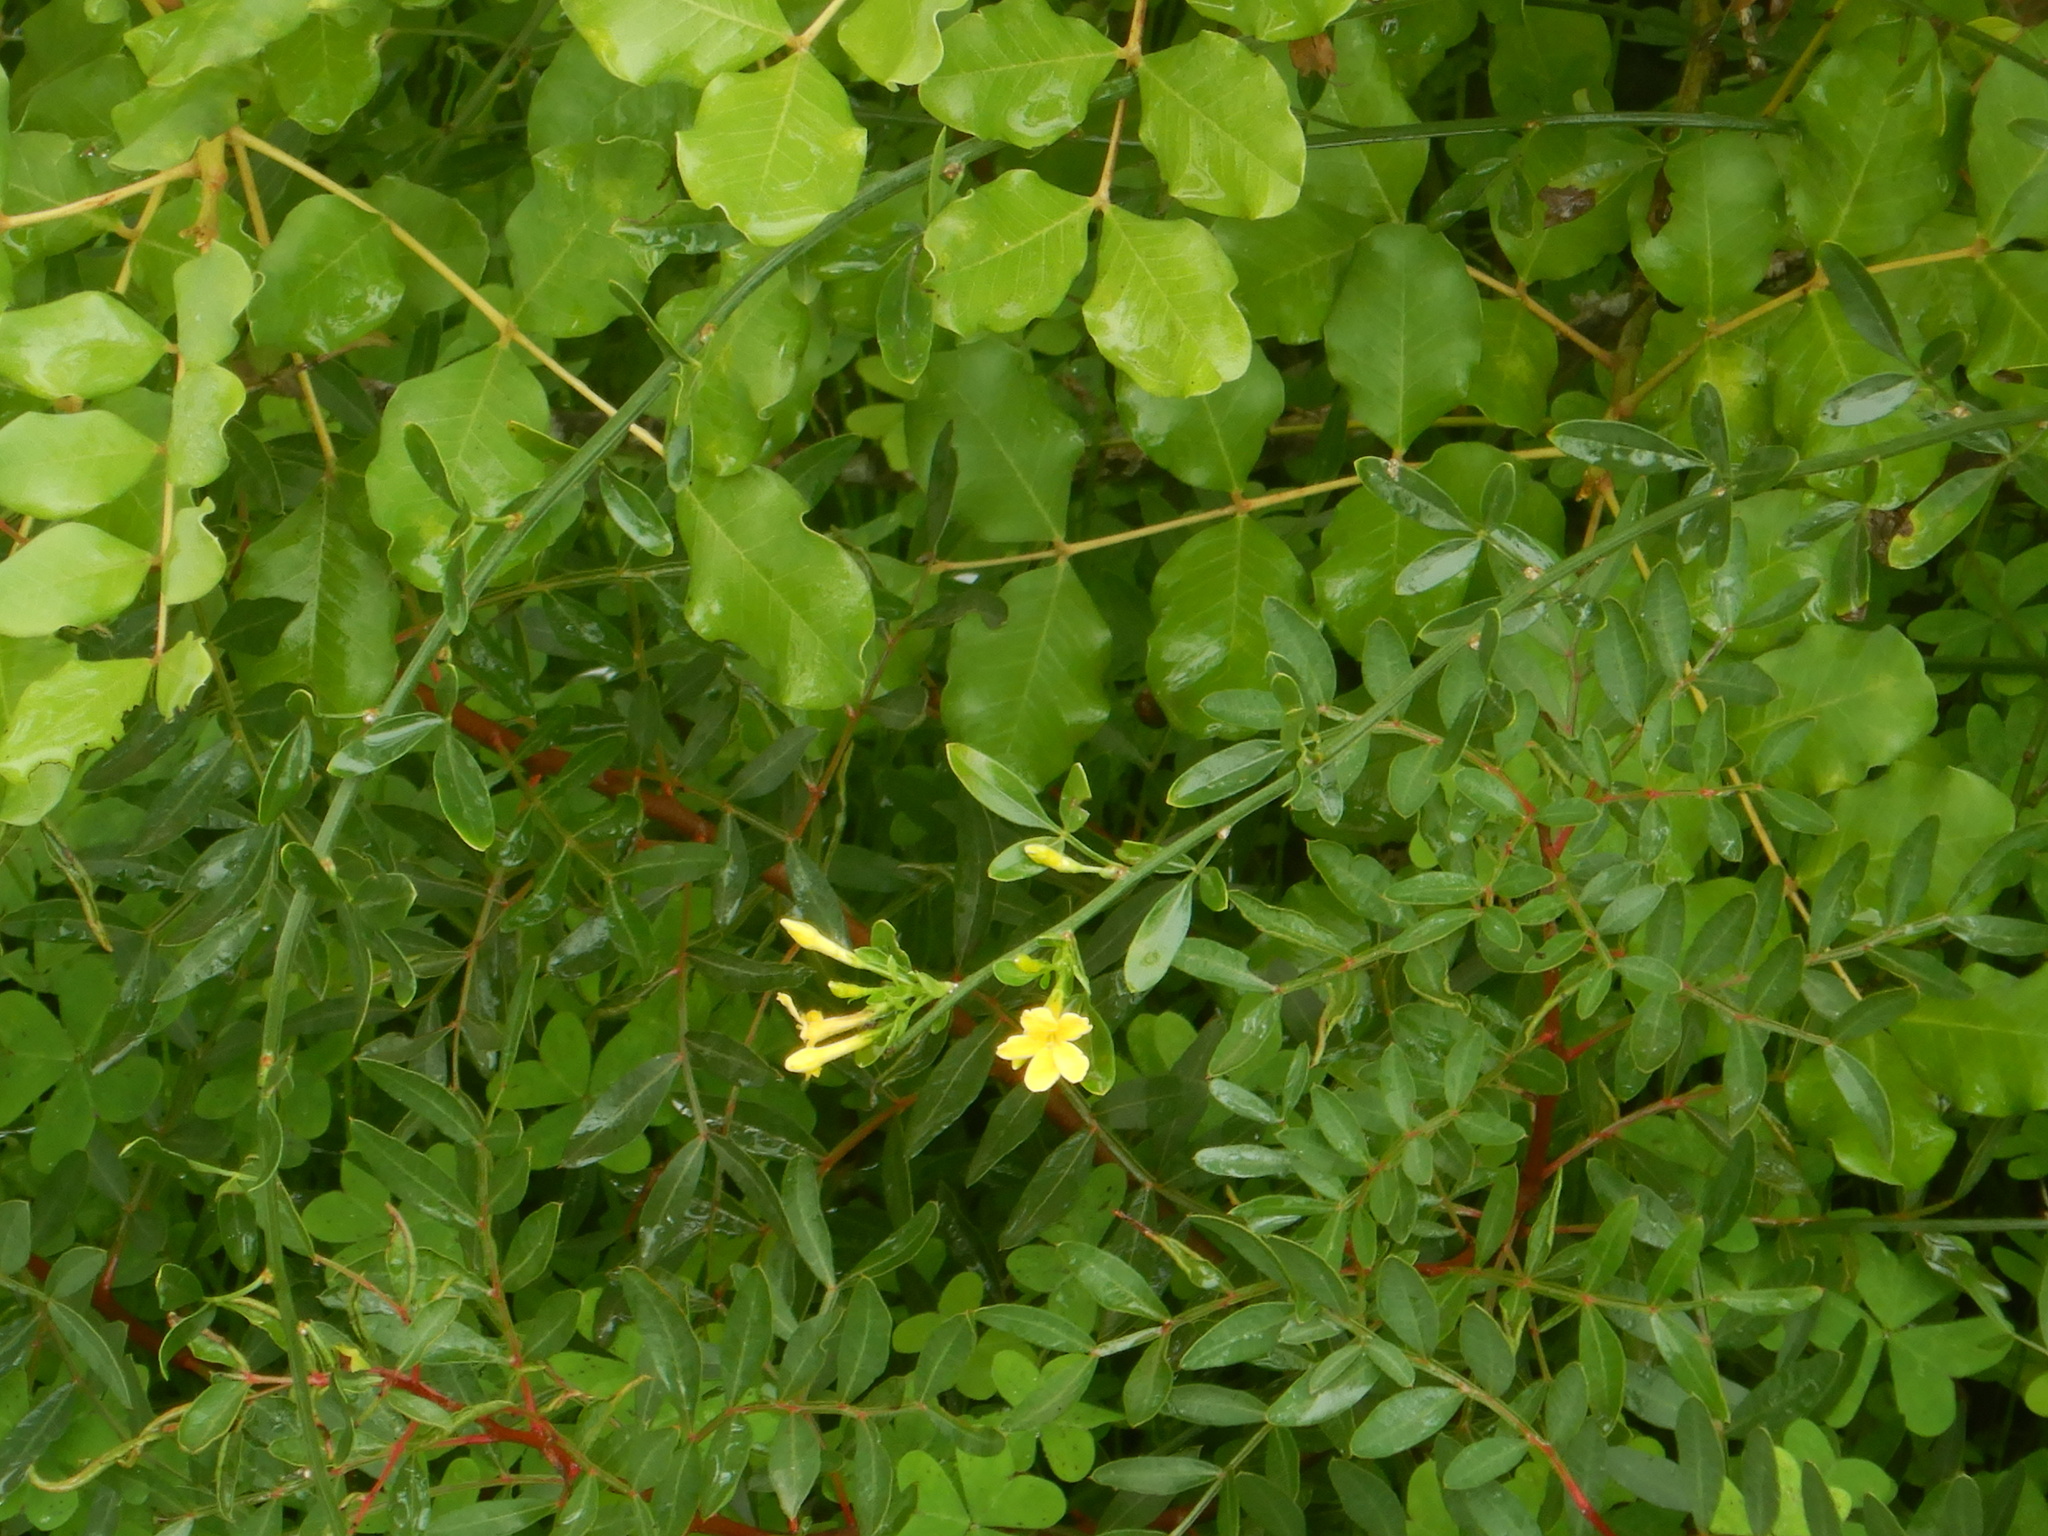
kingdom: Plantae
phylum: Tracheophyta
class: Magnoliopsida
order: Lamiales
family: Oleaceae
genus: Chrysojasminum
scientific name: Chrysojasminum fruticans
